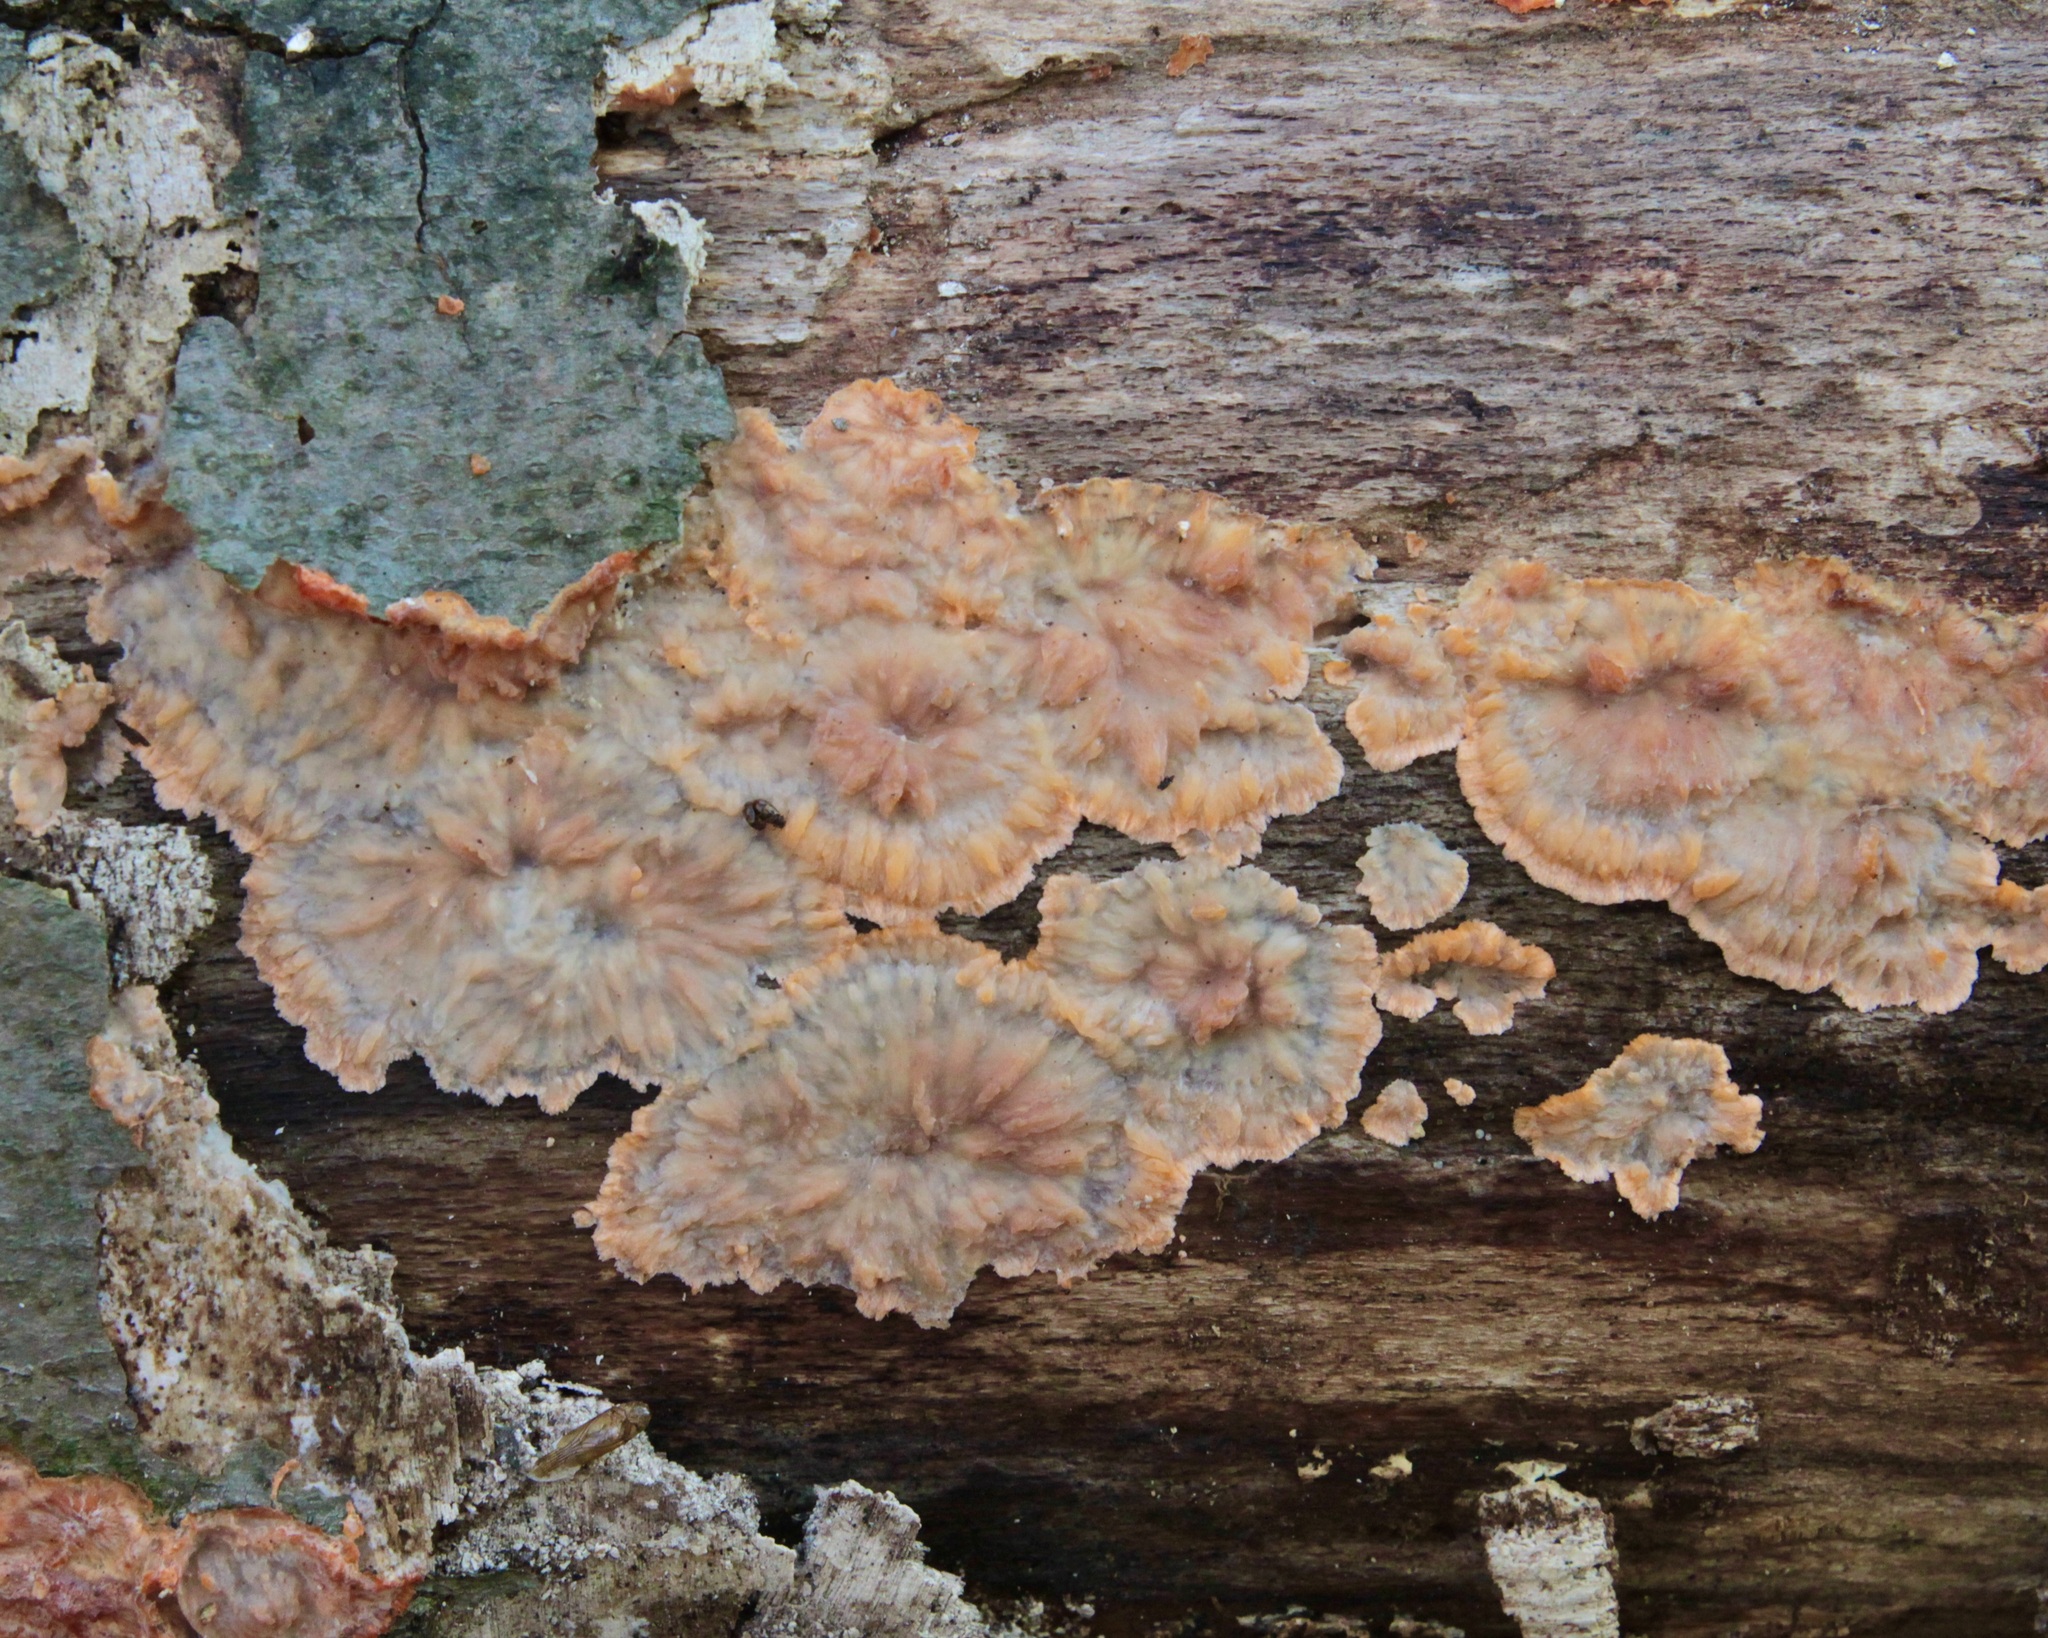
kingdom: Fungi
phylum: Basidiomycota
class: Agaricomycetes
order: Polyporales
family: Meruliaceae
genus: Phlebia
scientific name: Phlebia radiata
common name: Wrinkled crust
